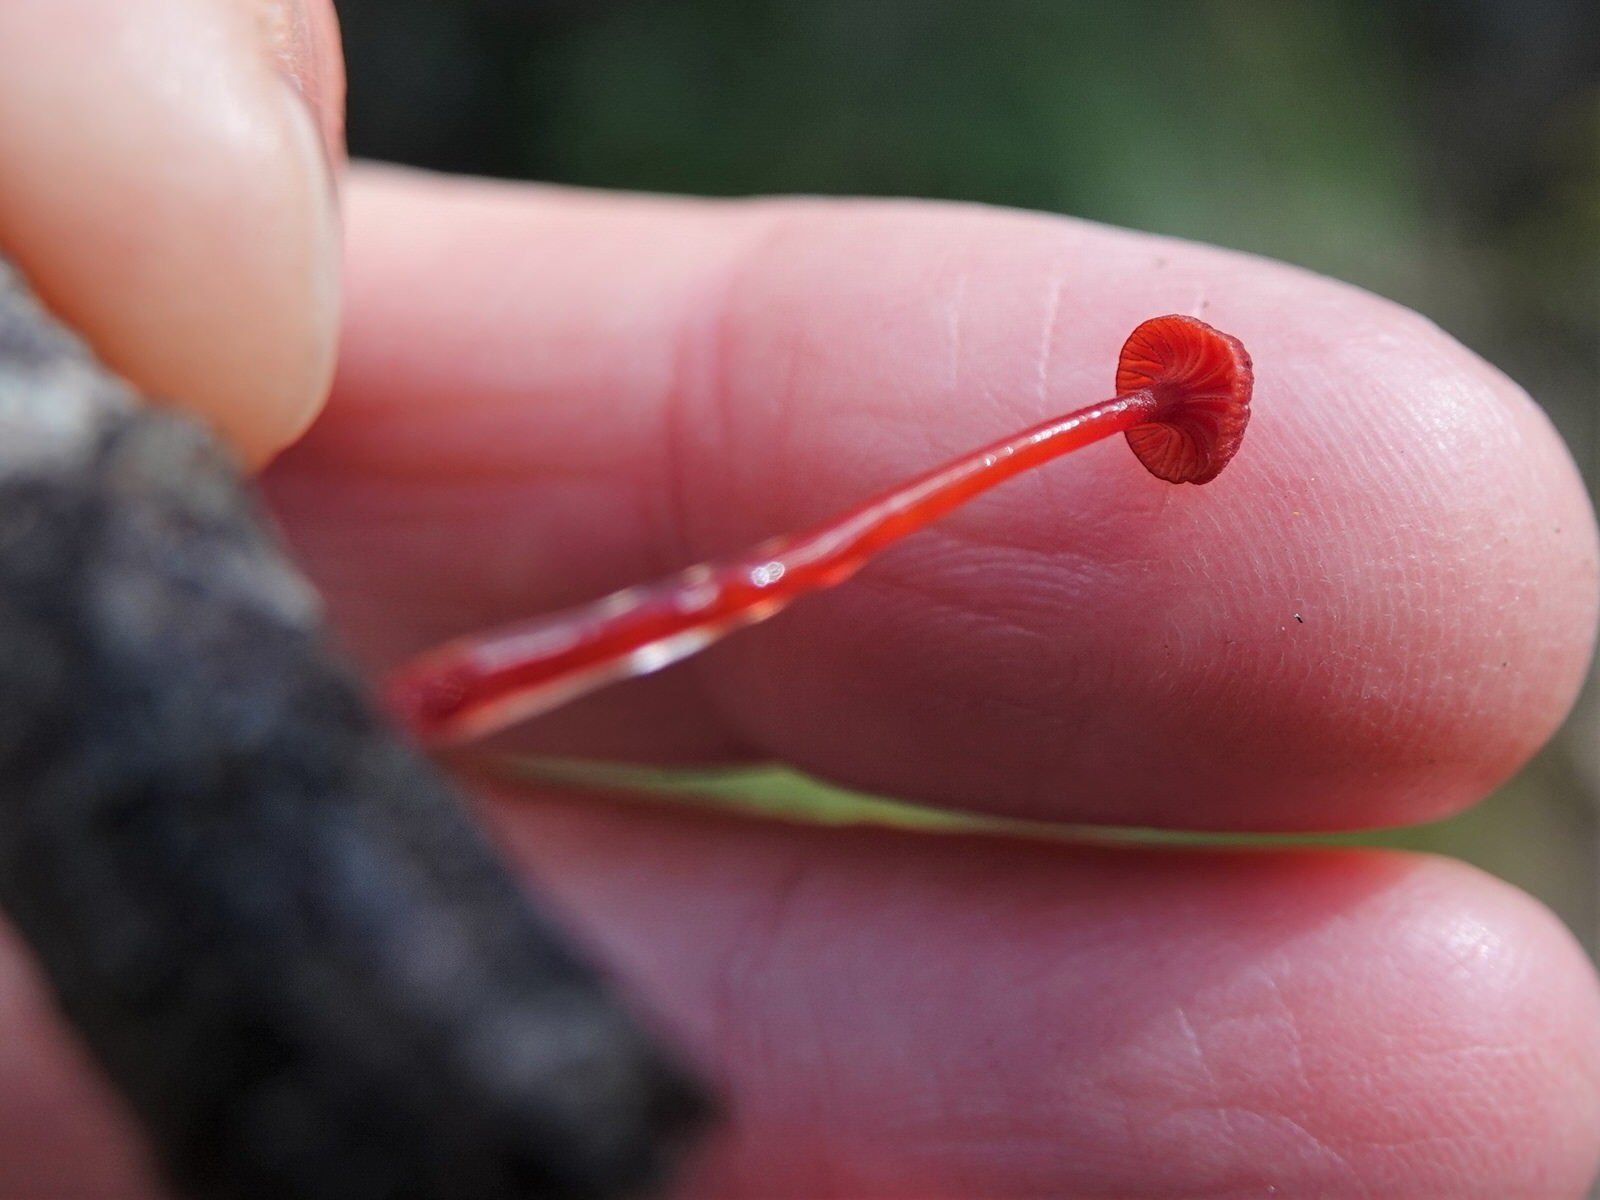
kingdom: Fungi
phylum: Basidiomycota
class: Agaricomycetes
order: Agaricales
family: Mycenaceae
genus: Cruentomycena
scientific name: Cruentomycena viscidocruenta
